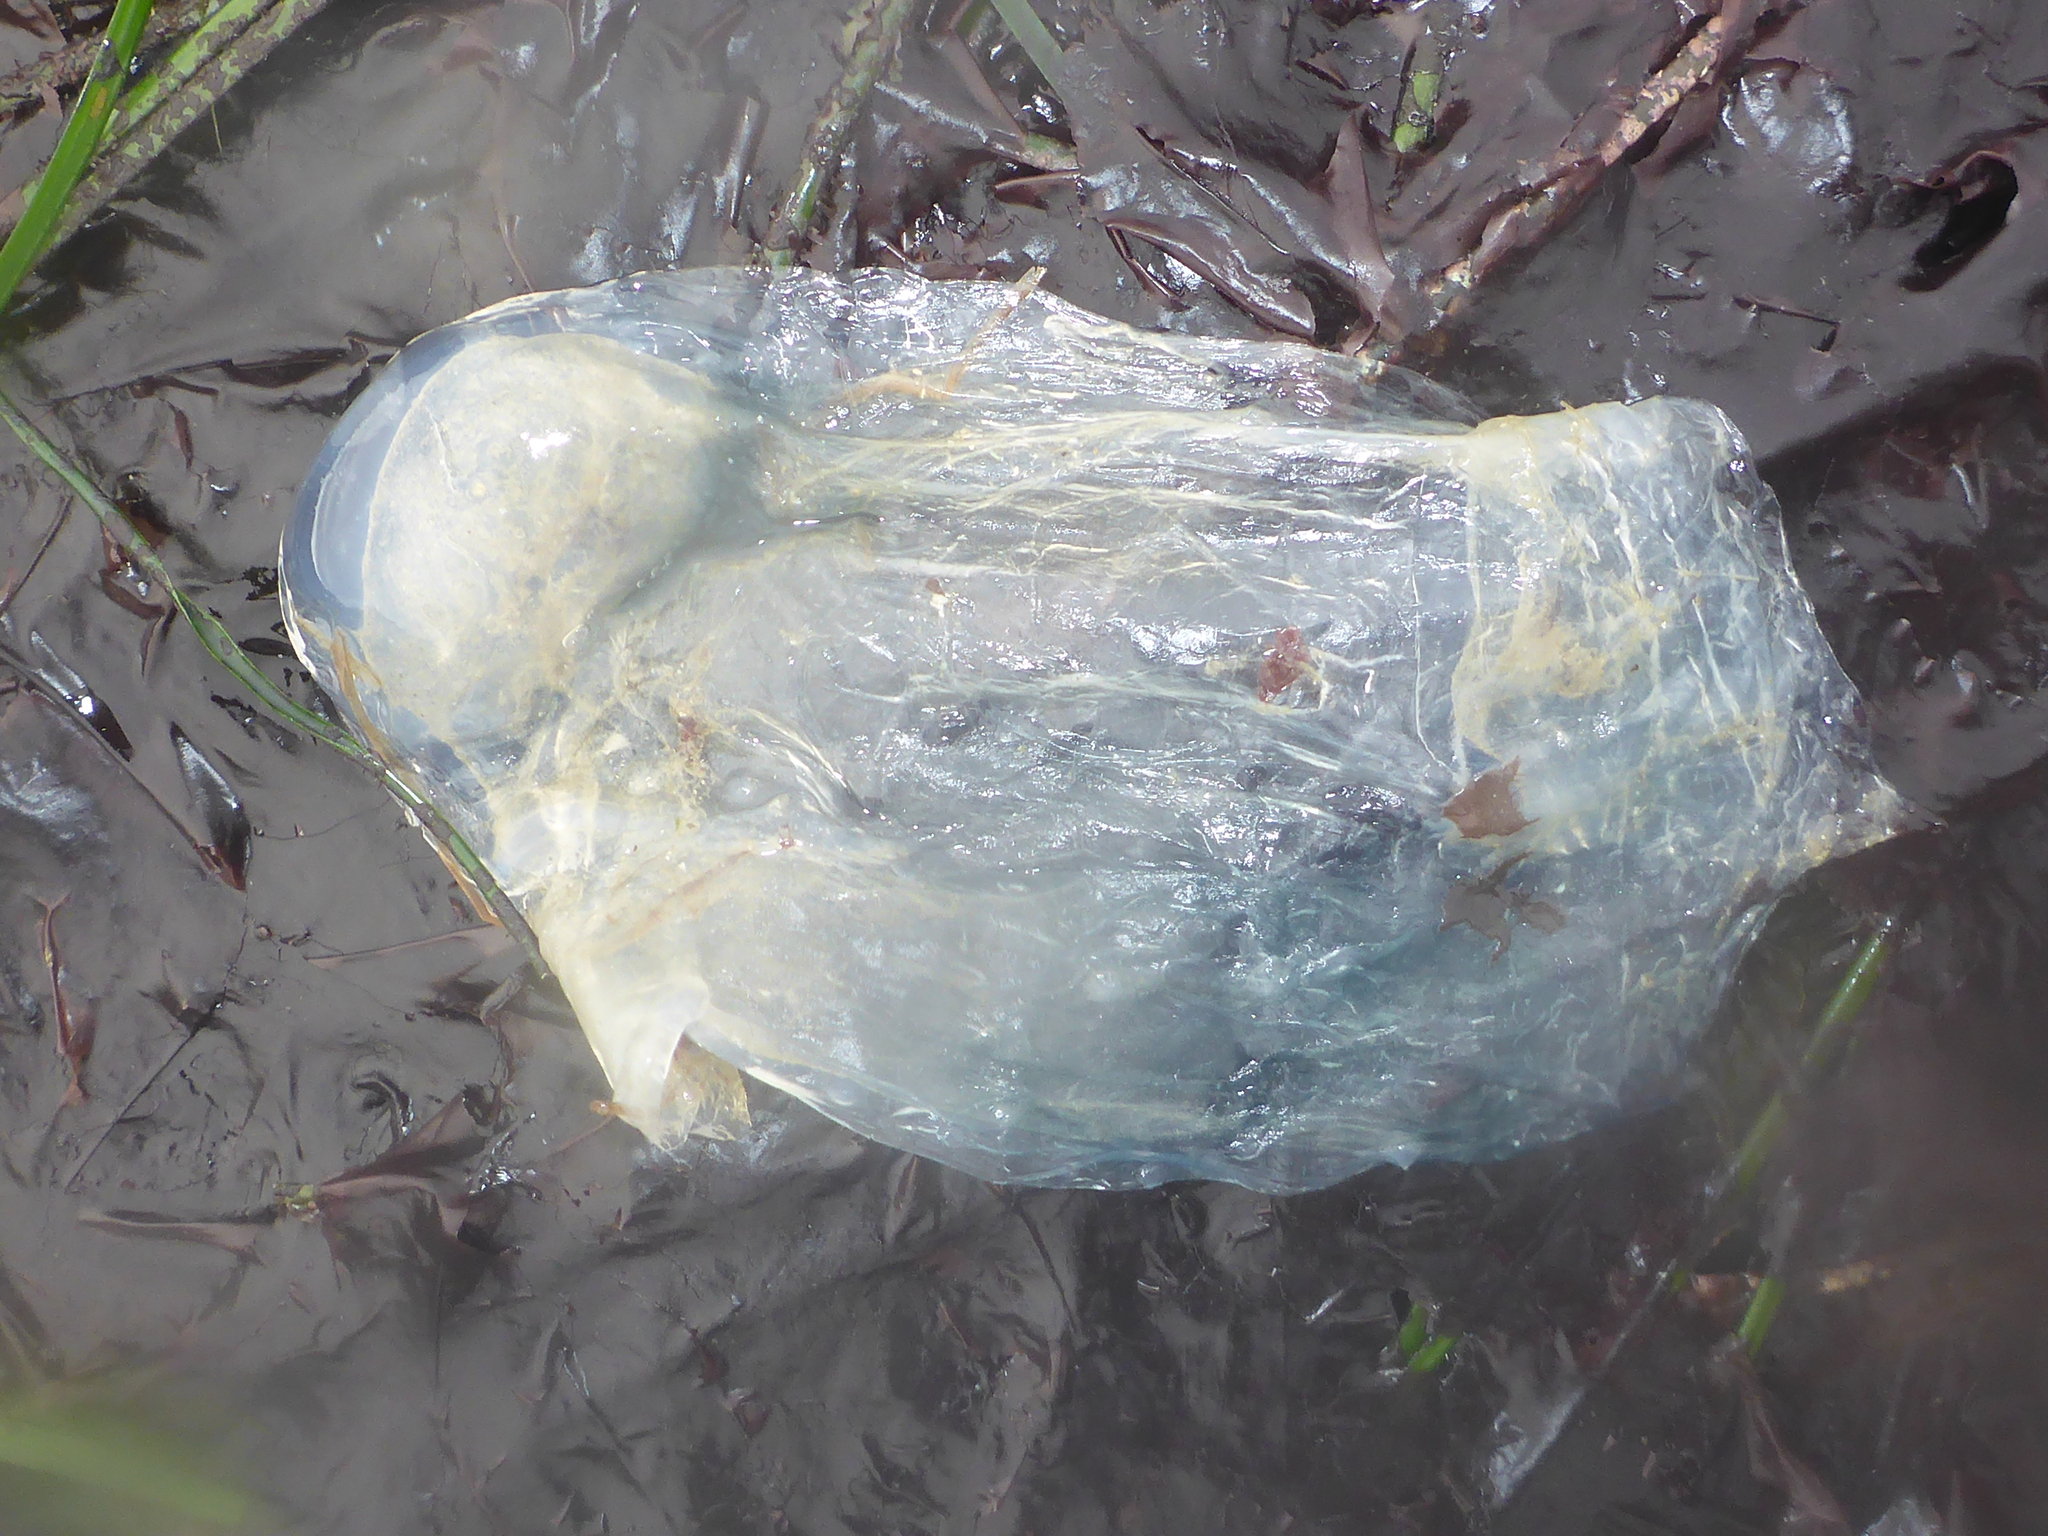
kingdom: Animalia
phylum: Chordata
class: Thaliacea
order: Salpida
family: Salpidae
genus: Thetys
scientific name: Thetys vagina
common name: Vagina salp
